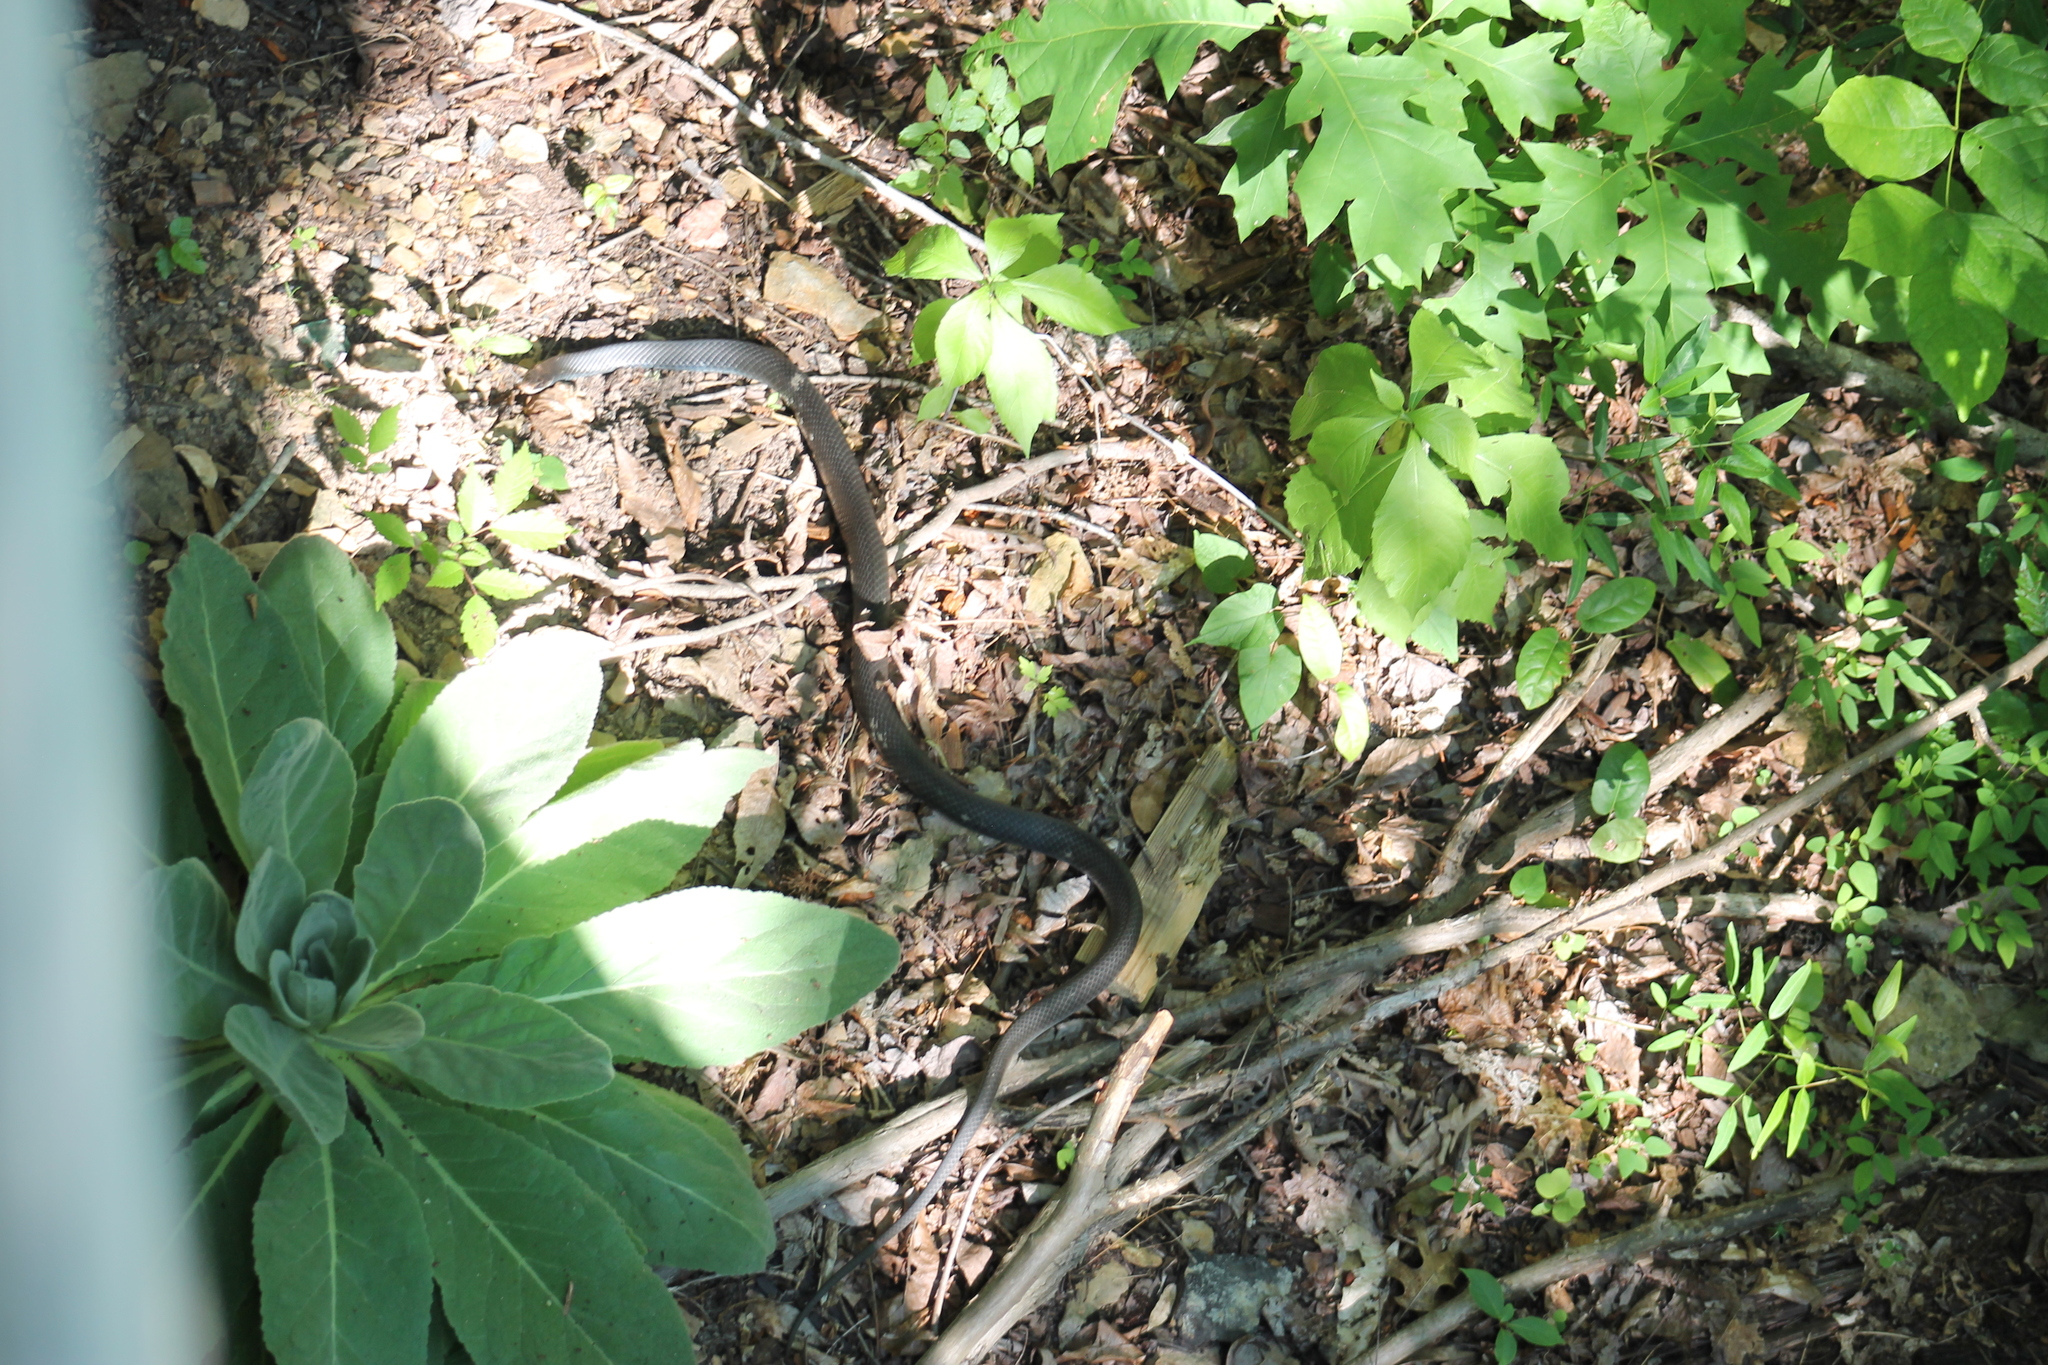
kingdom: Animalia
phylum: Chordata
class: Squamata
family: Colubridae
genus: Coluber
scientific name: Coluber constrictor
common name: Eastern racer
